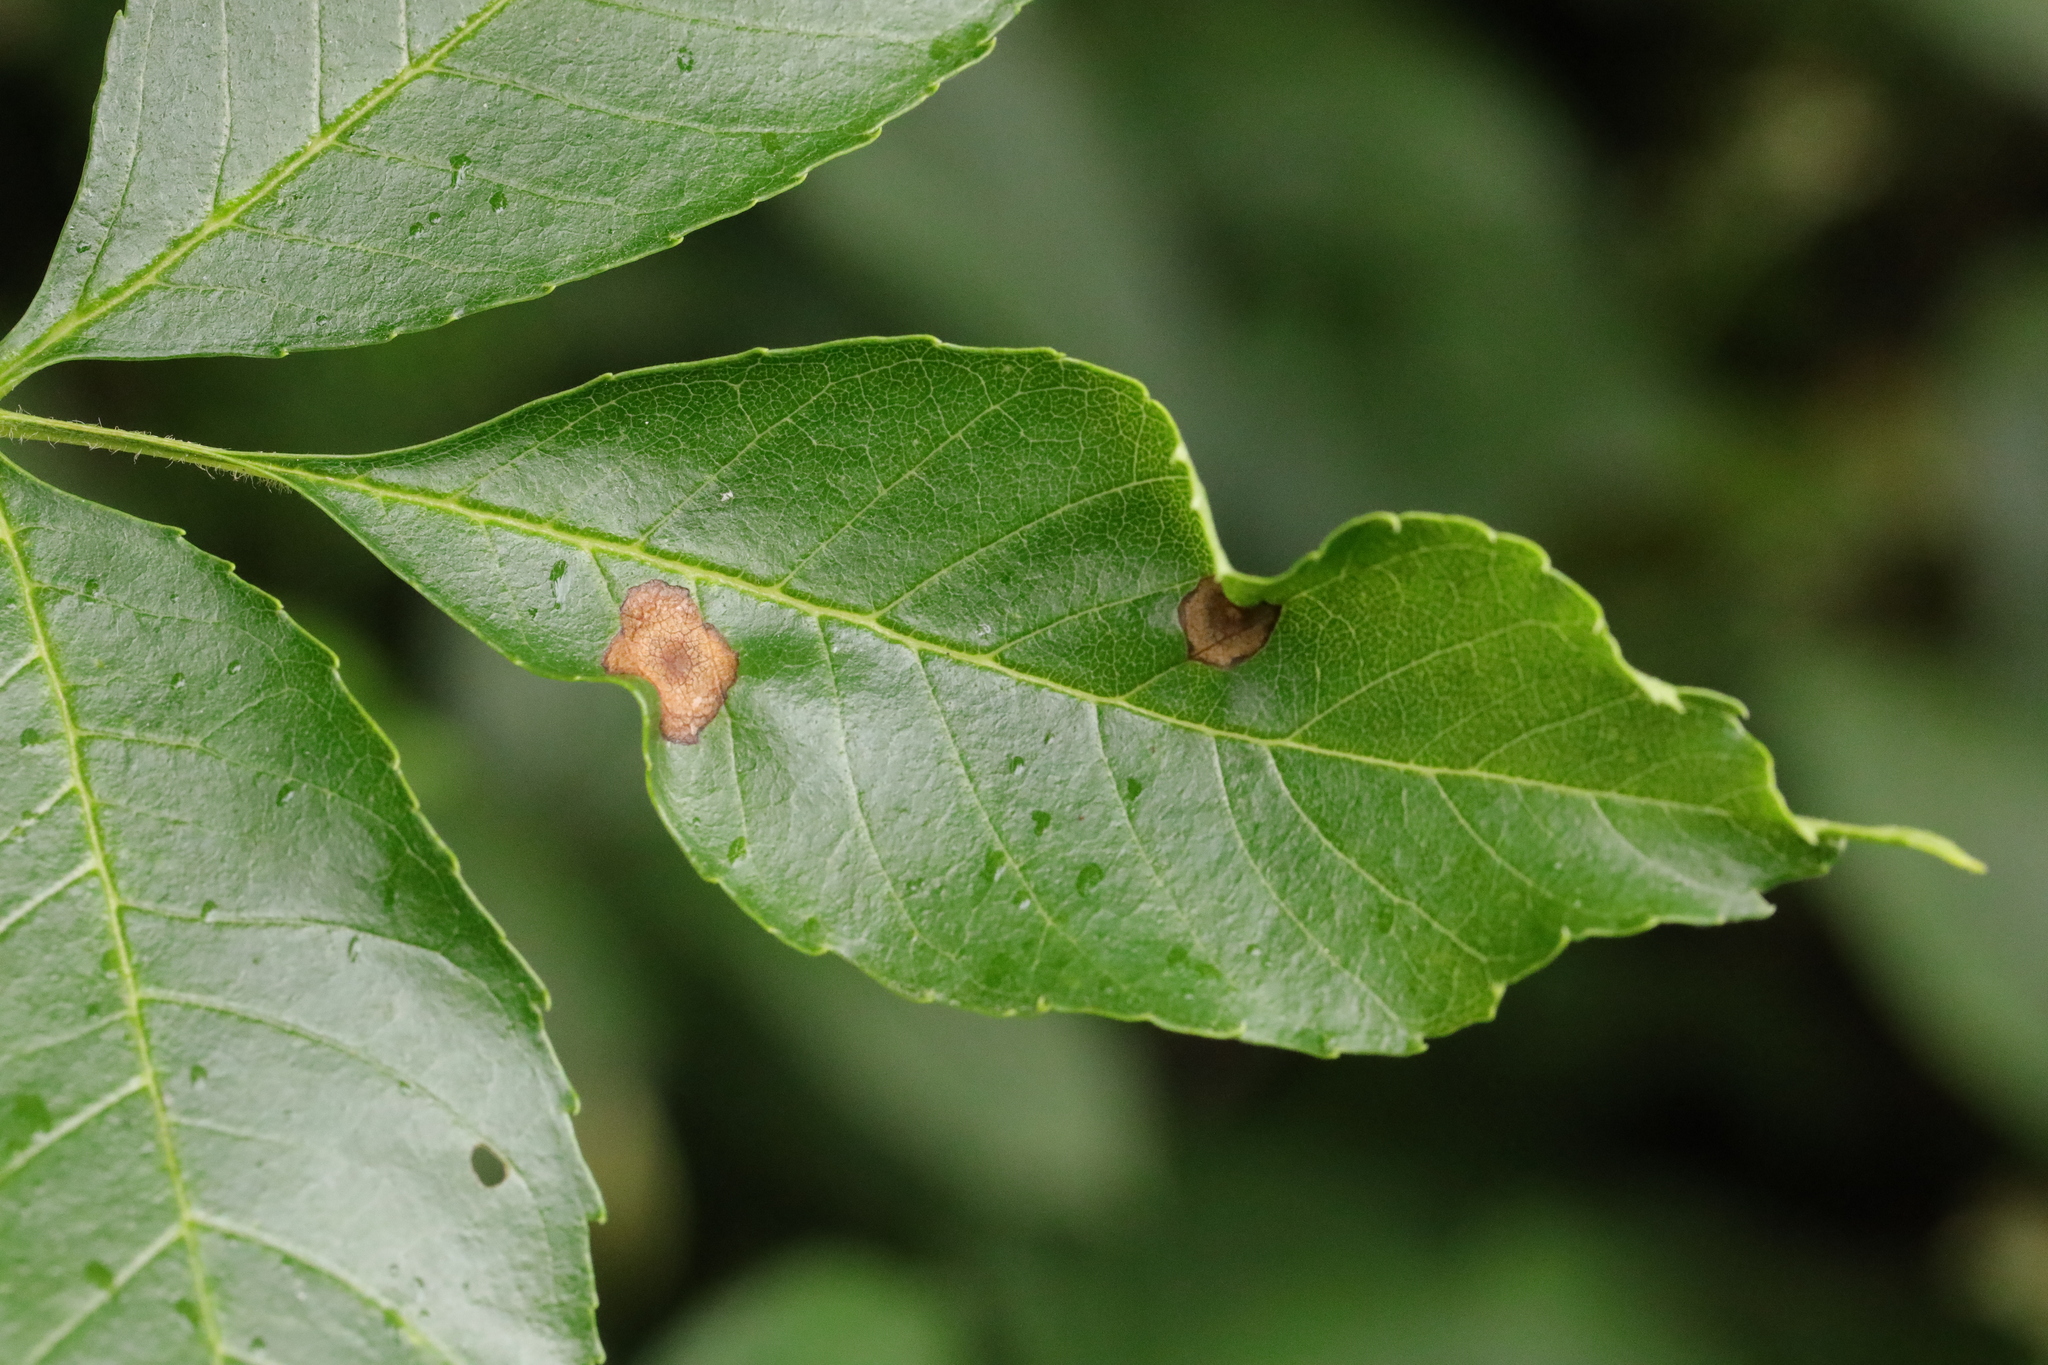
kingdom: Animalia
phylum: Arthropoda
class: Insecta
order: Diptera
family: Cecidomyiidae
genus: Dasineura
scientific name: Dasineura fraxinea
